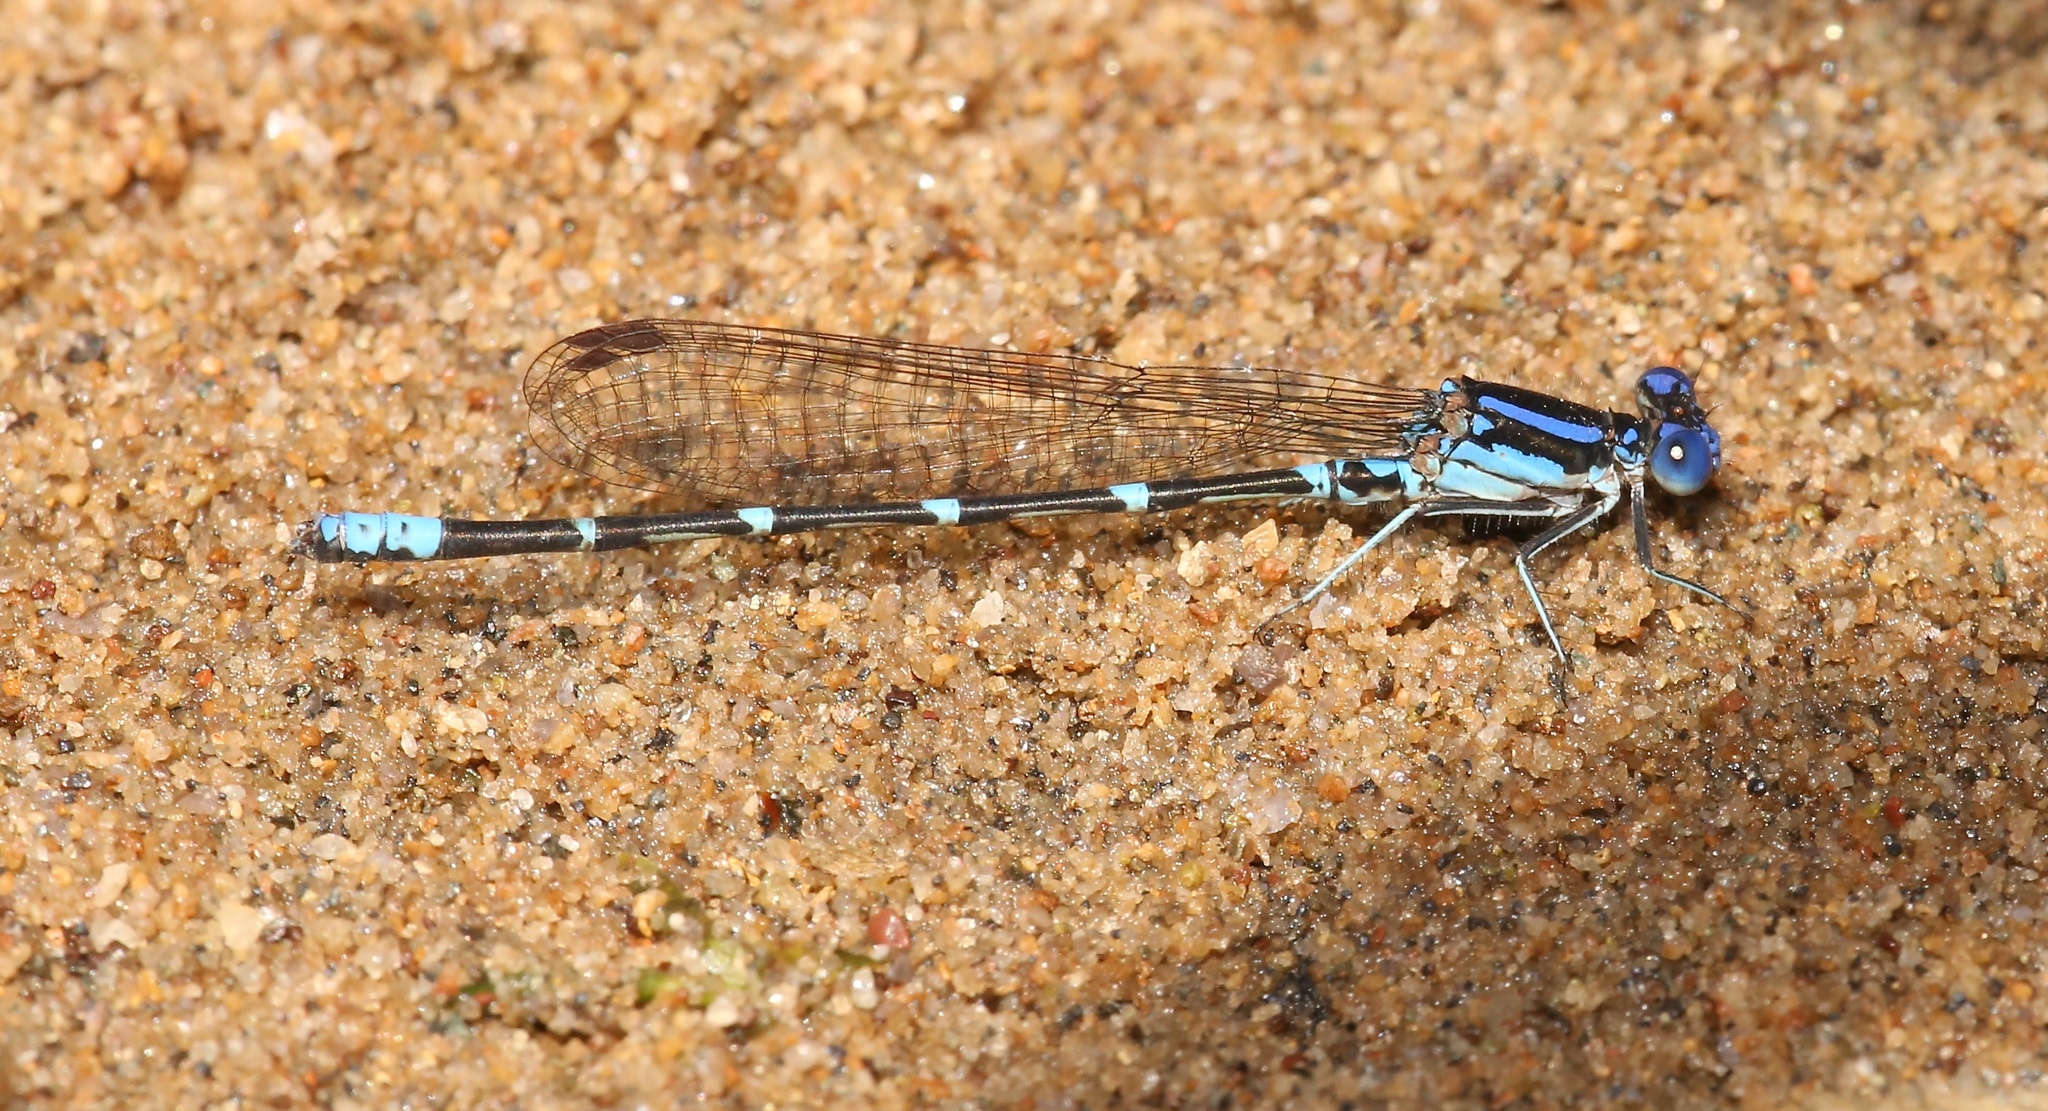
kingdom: Animalia
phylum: Arthropoda
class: Insecta
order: Odonata
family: Coenagrionidae
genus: Argia
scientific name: Argia sedula
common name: Blue-ringed dancer
